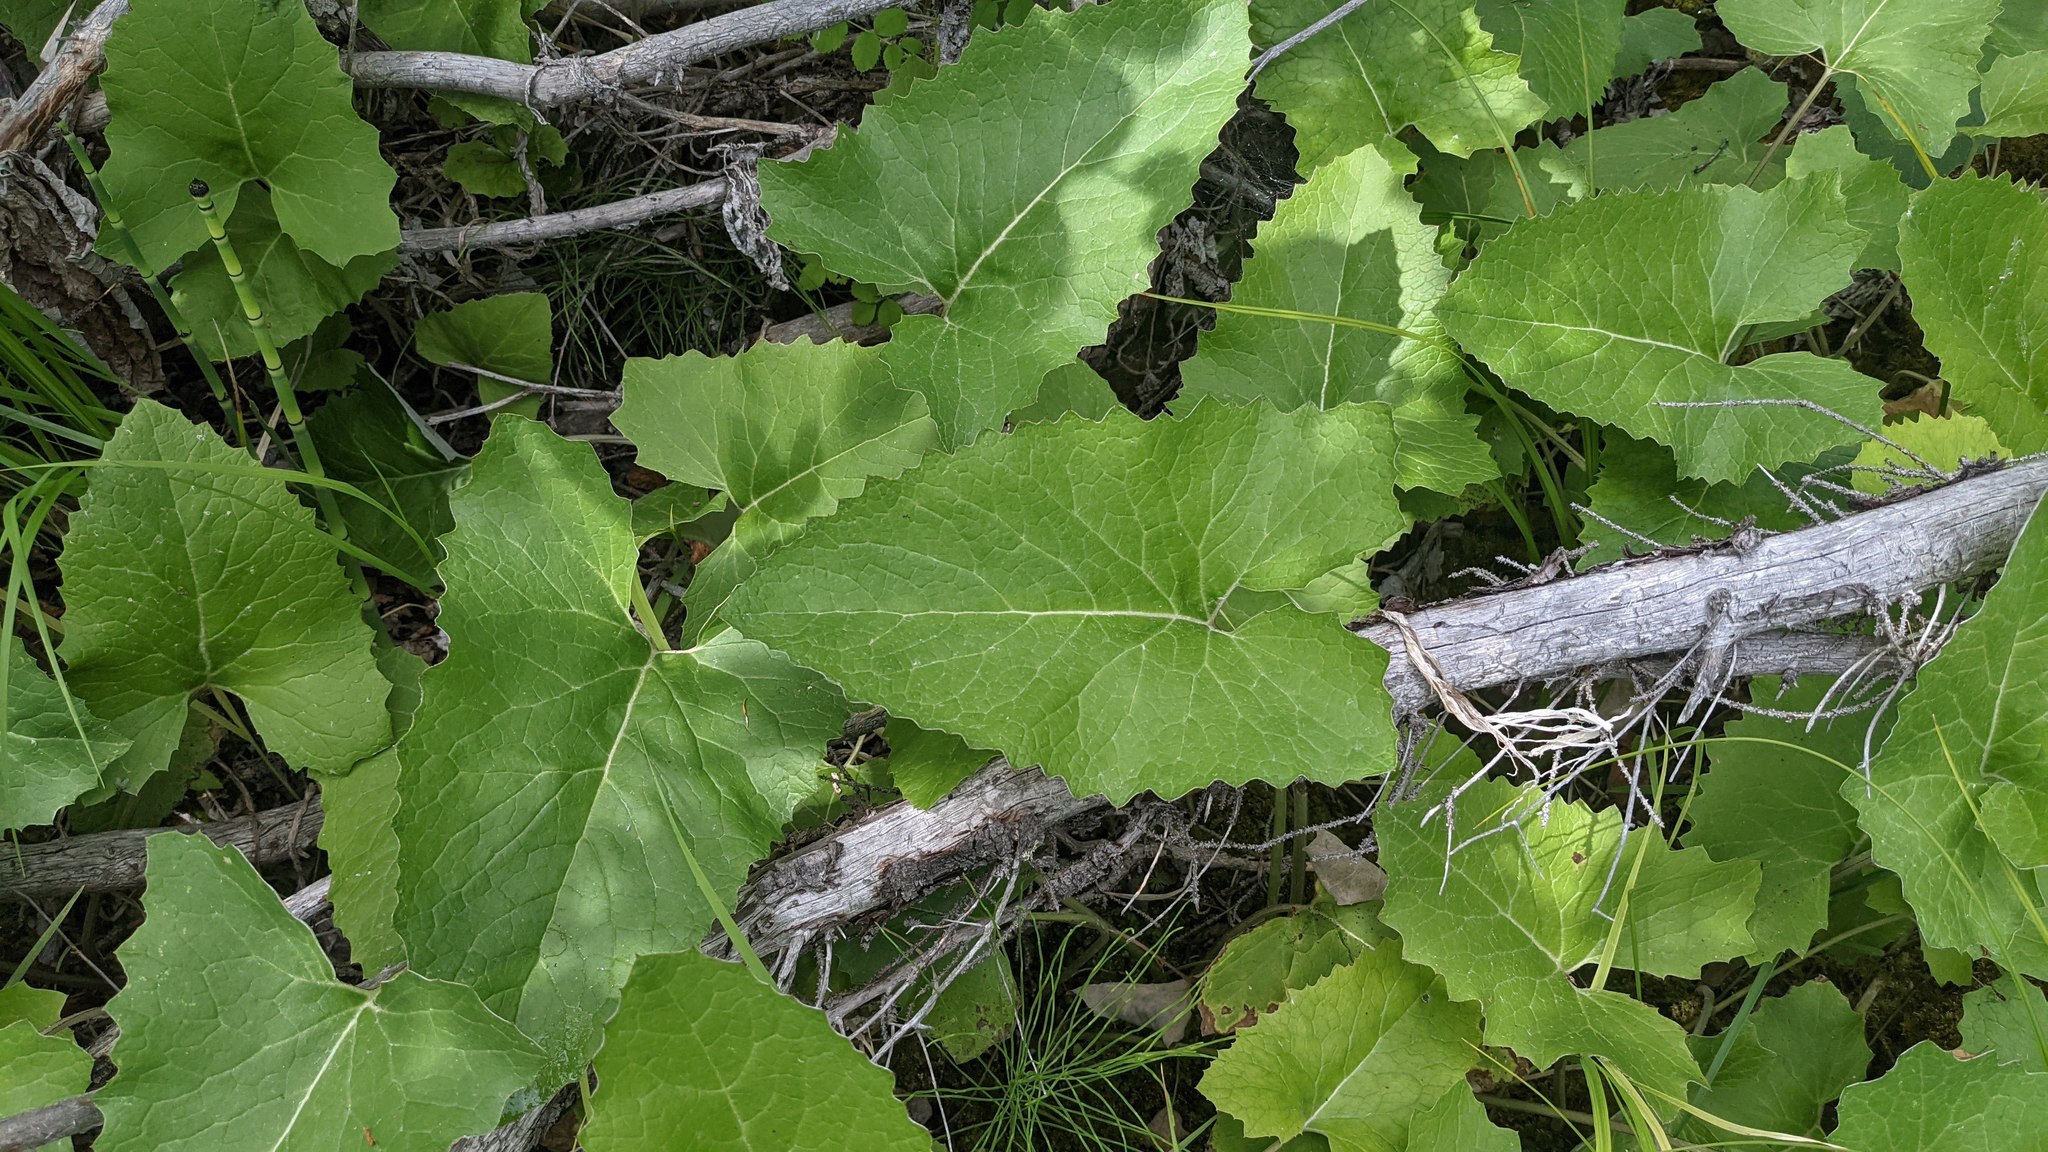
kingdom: Plantae
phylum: Tracheophyta
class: Magnoliopsida
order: Asterales
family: Asteraceae
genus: Petasites
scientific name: Petasites frigidus
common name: Arctic butterbur
